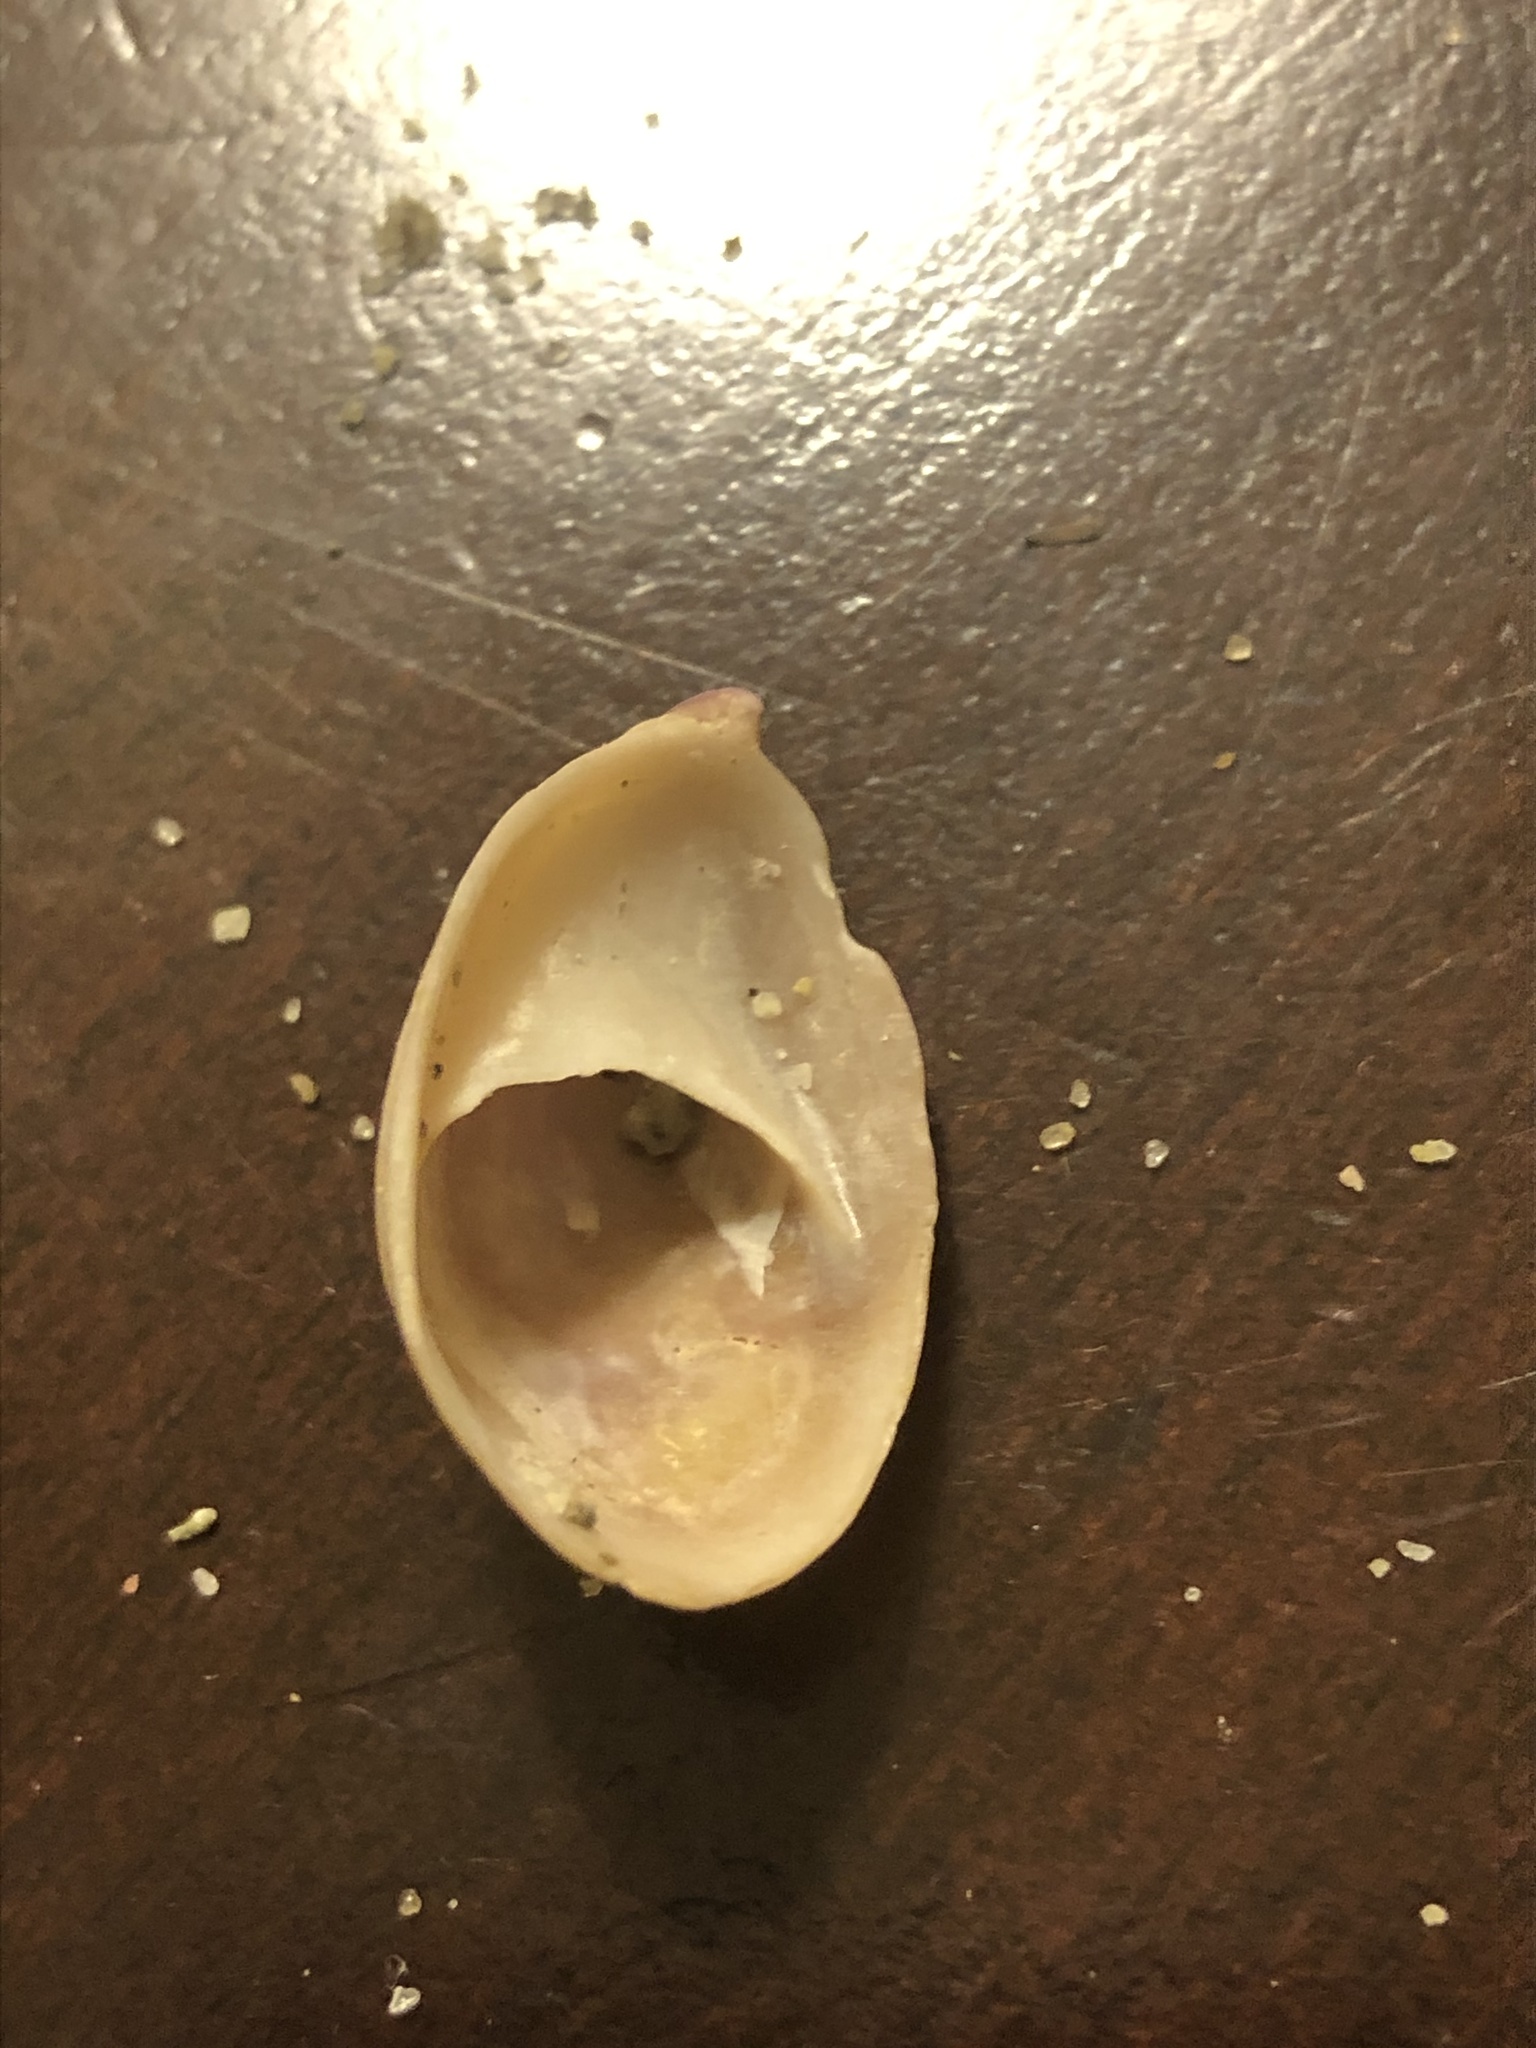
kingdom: Animalia
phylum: Mollusca
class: Gastropoda
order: Littorinimorpha
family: Calyptraeidae
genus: Crepidula
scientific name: Crepidula onyx
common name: Onyx slippersnail
